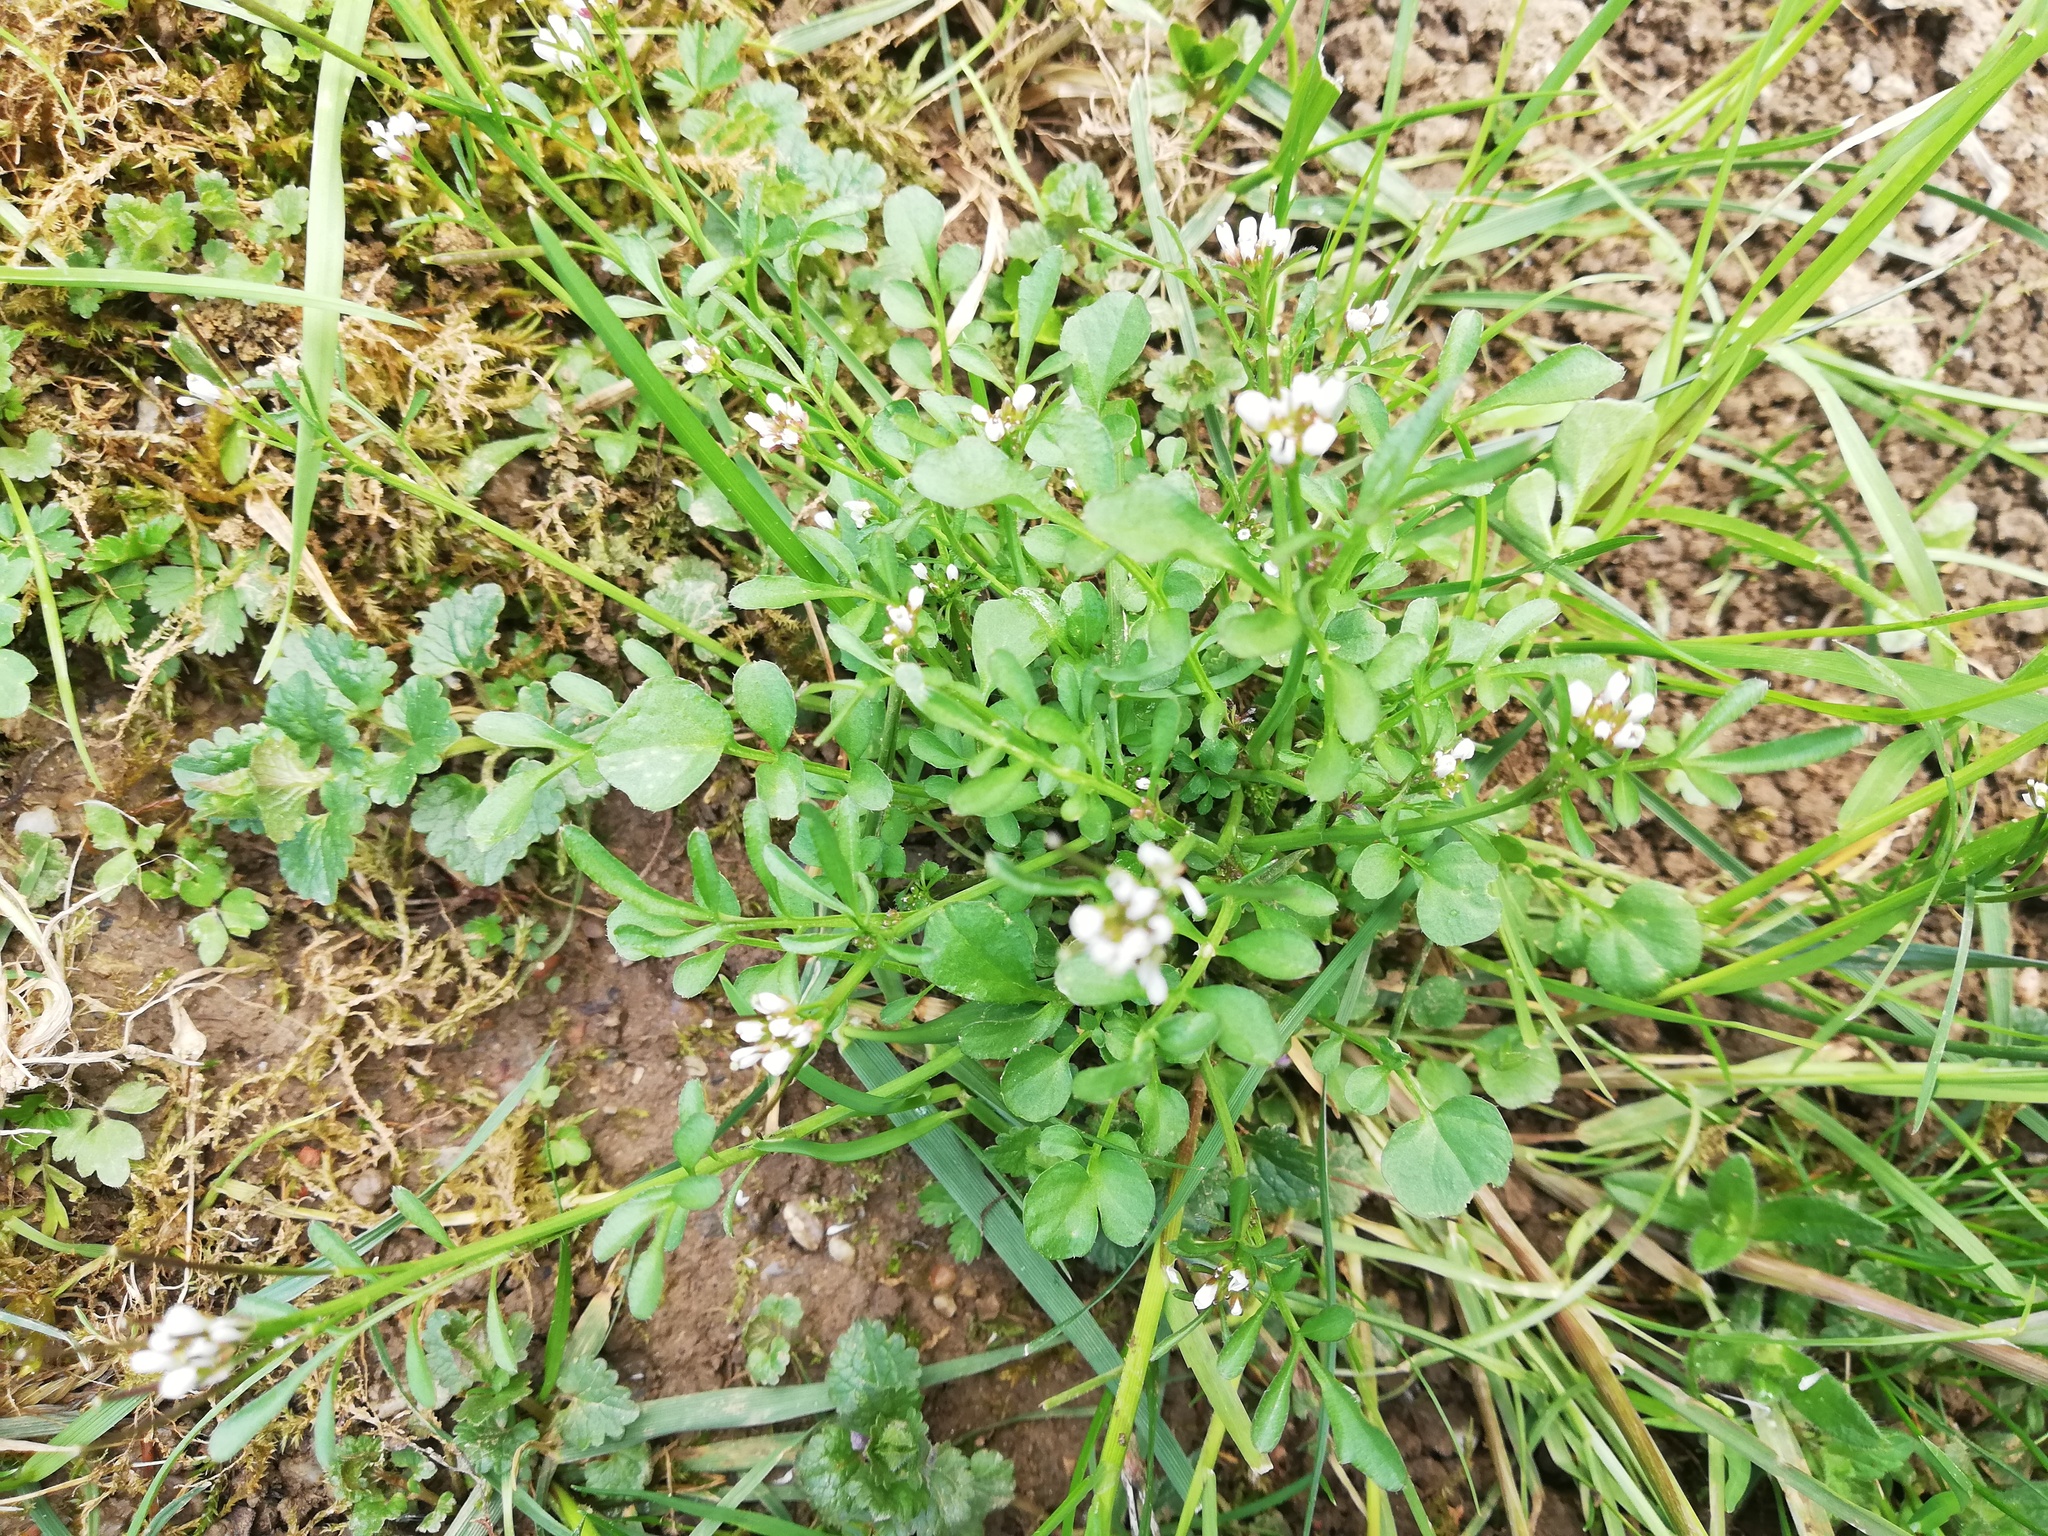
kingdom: Plantae
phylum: Tracheophyta
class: Magnoliopsida
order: Brassicales
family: Brassicaceae
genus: Cardamine
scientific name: Cardamine hirsuta
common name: Hairy bittercress
